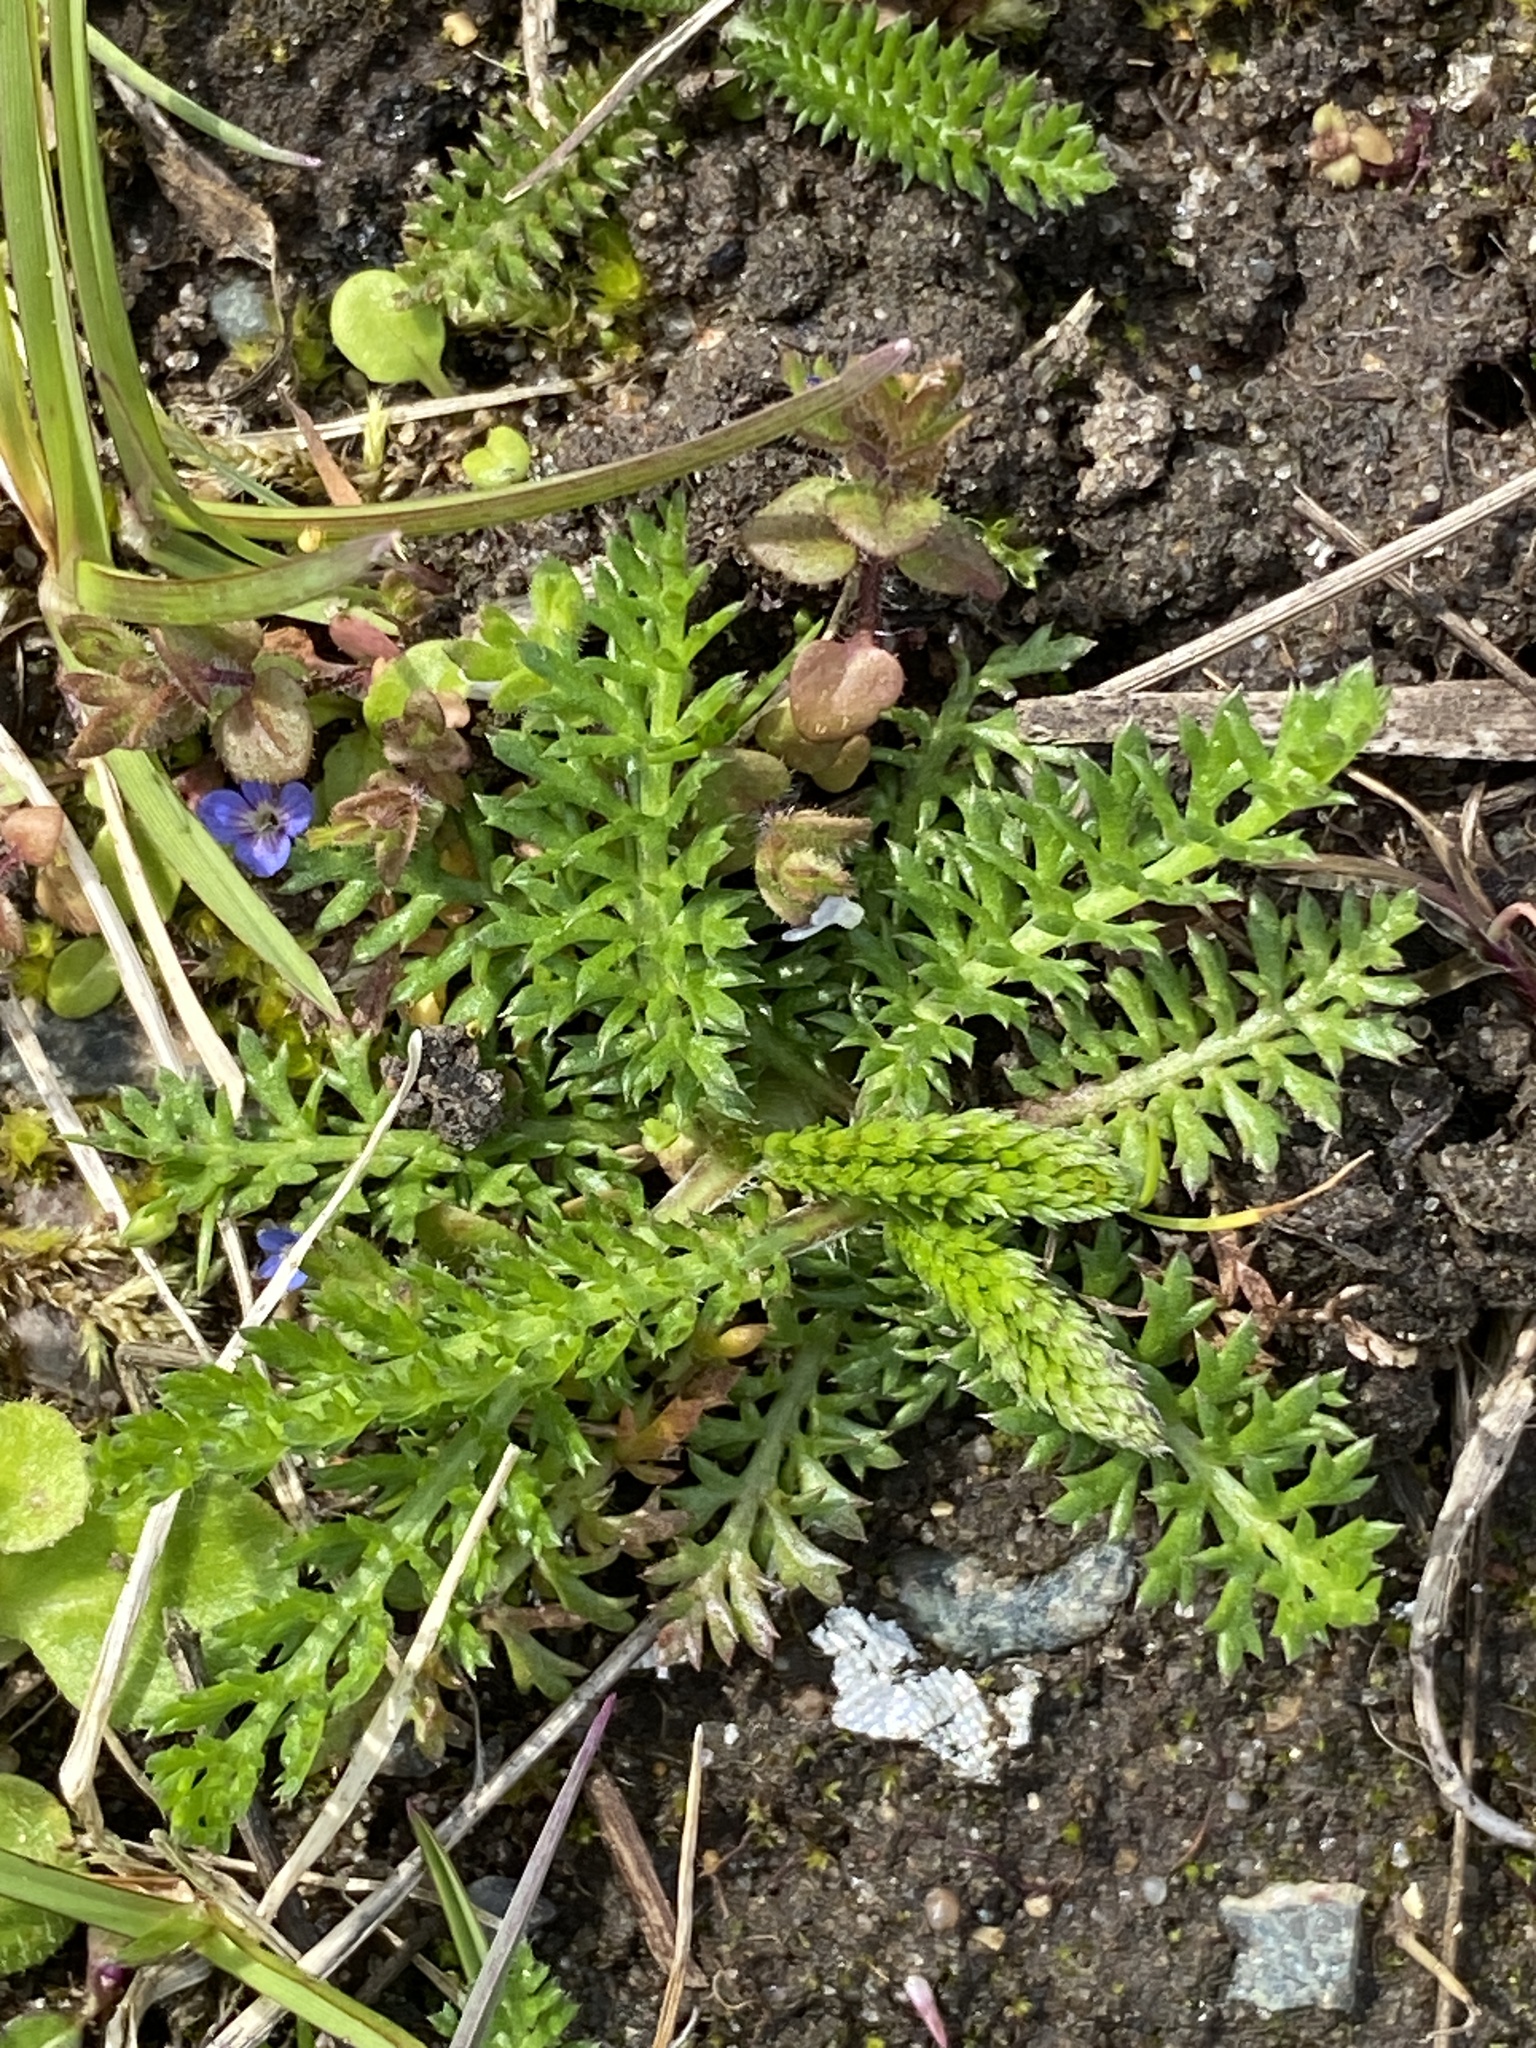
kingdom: Plantae
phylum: Tracheophyta
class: Magnoliopsida
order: Asterales
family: Asteraceae
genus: Achillea
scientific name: Achillea millefolium
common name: Yarrow
